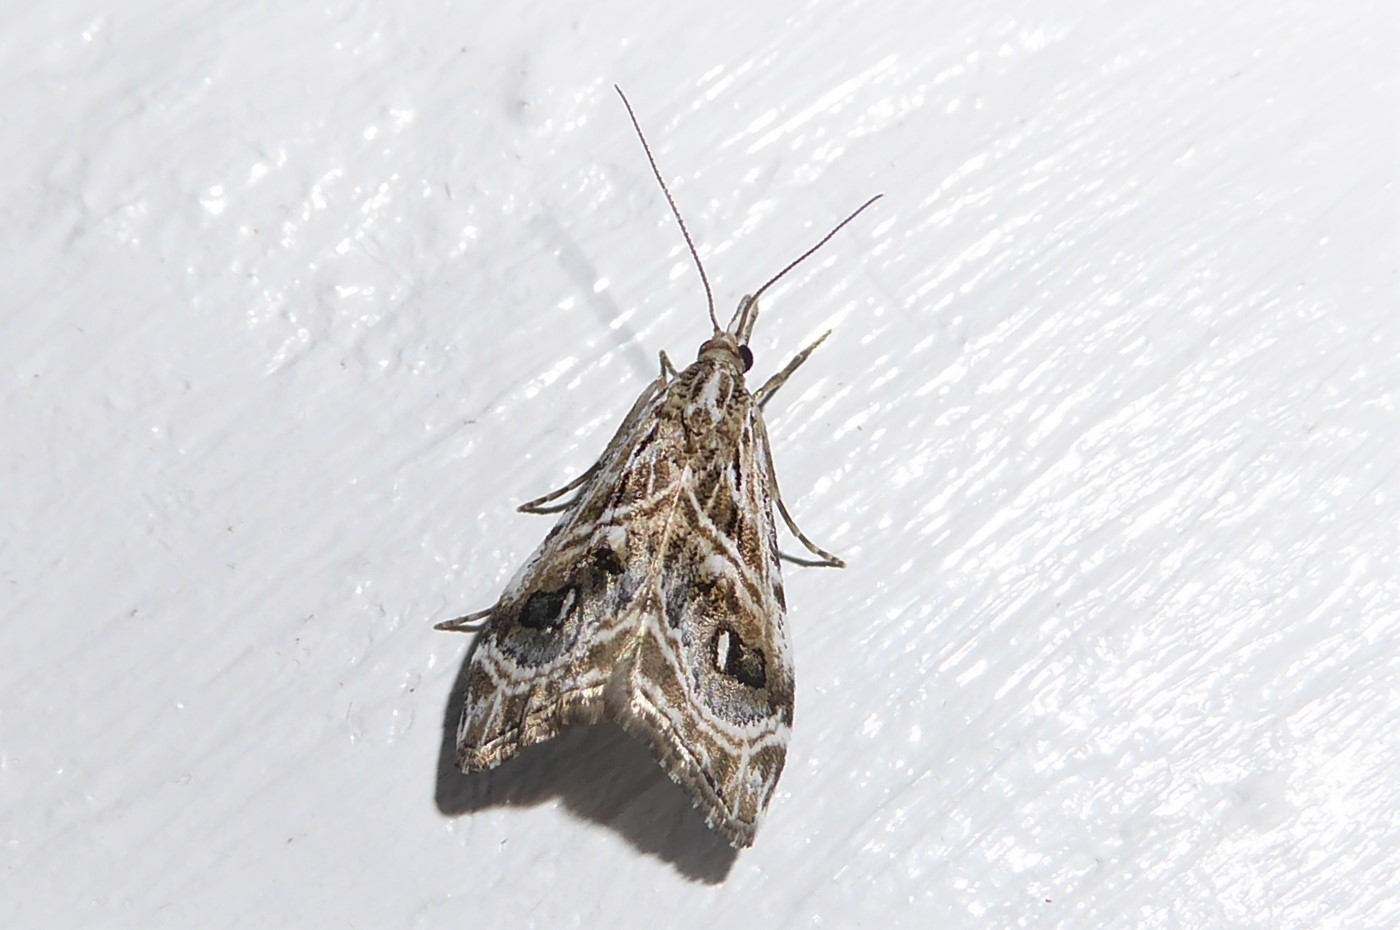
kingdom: Animalia
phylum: Arthropoda
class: Insecta
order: Lepidoptera
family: Crambidae
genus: Gadira
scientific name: Gadira acerella
